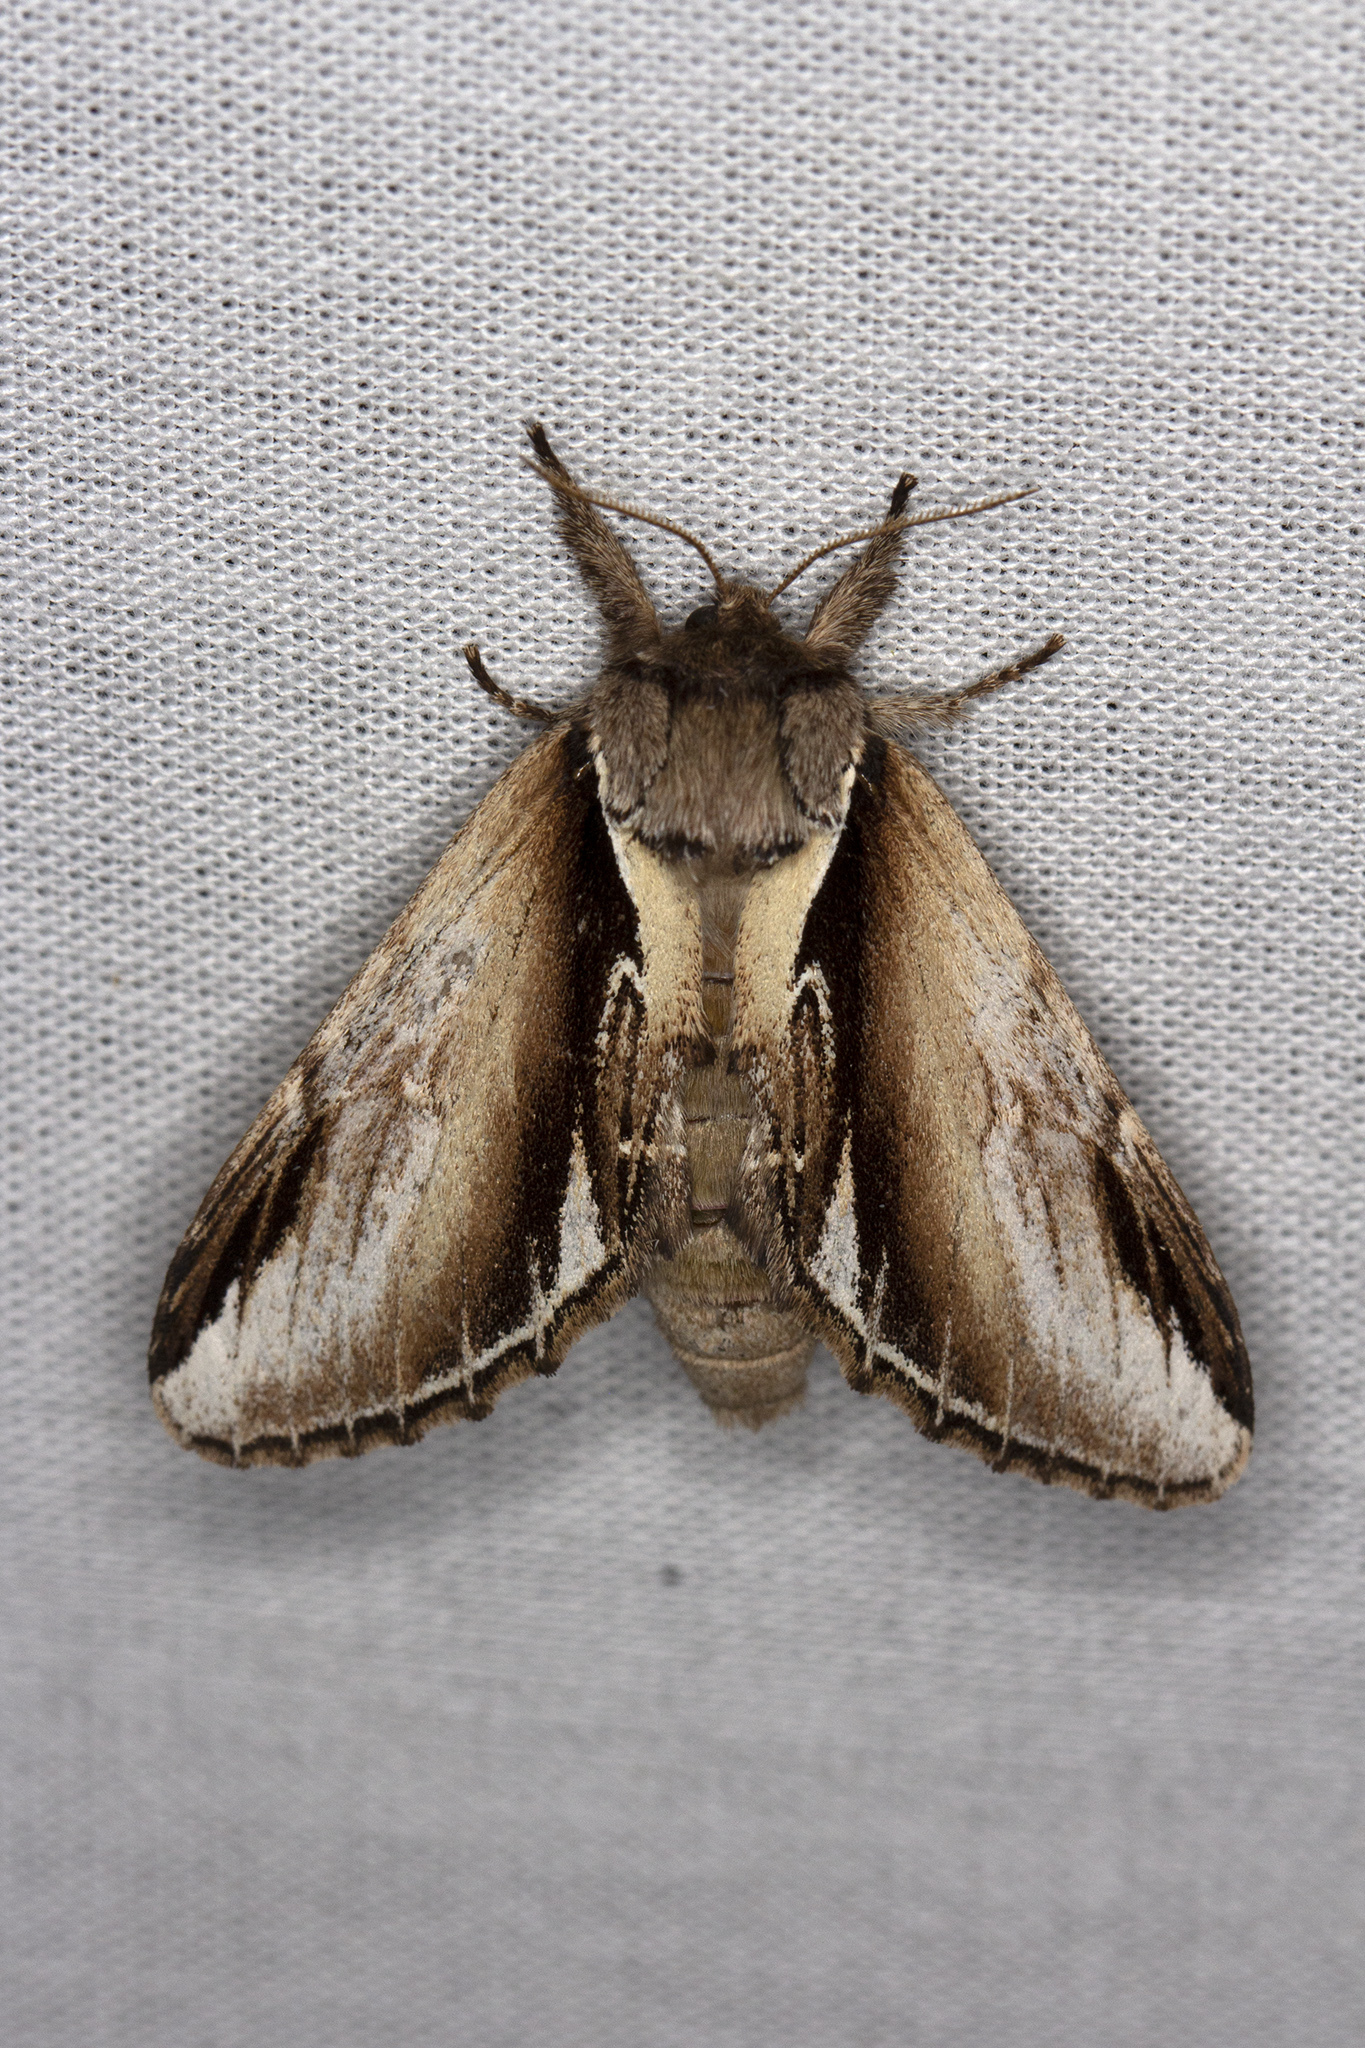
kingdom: Animalia
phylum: Arthropoda
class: Insecta
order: Lepidoptera
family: Notodontidae
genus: Pheosia
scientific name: Pheosia gnoma
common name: Lesser swallow prominent
